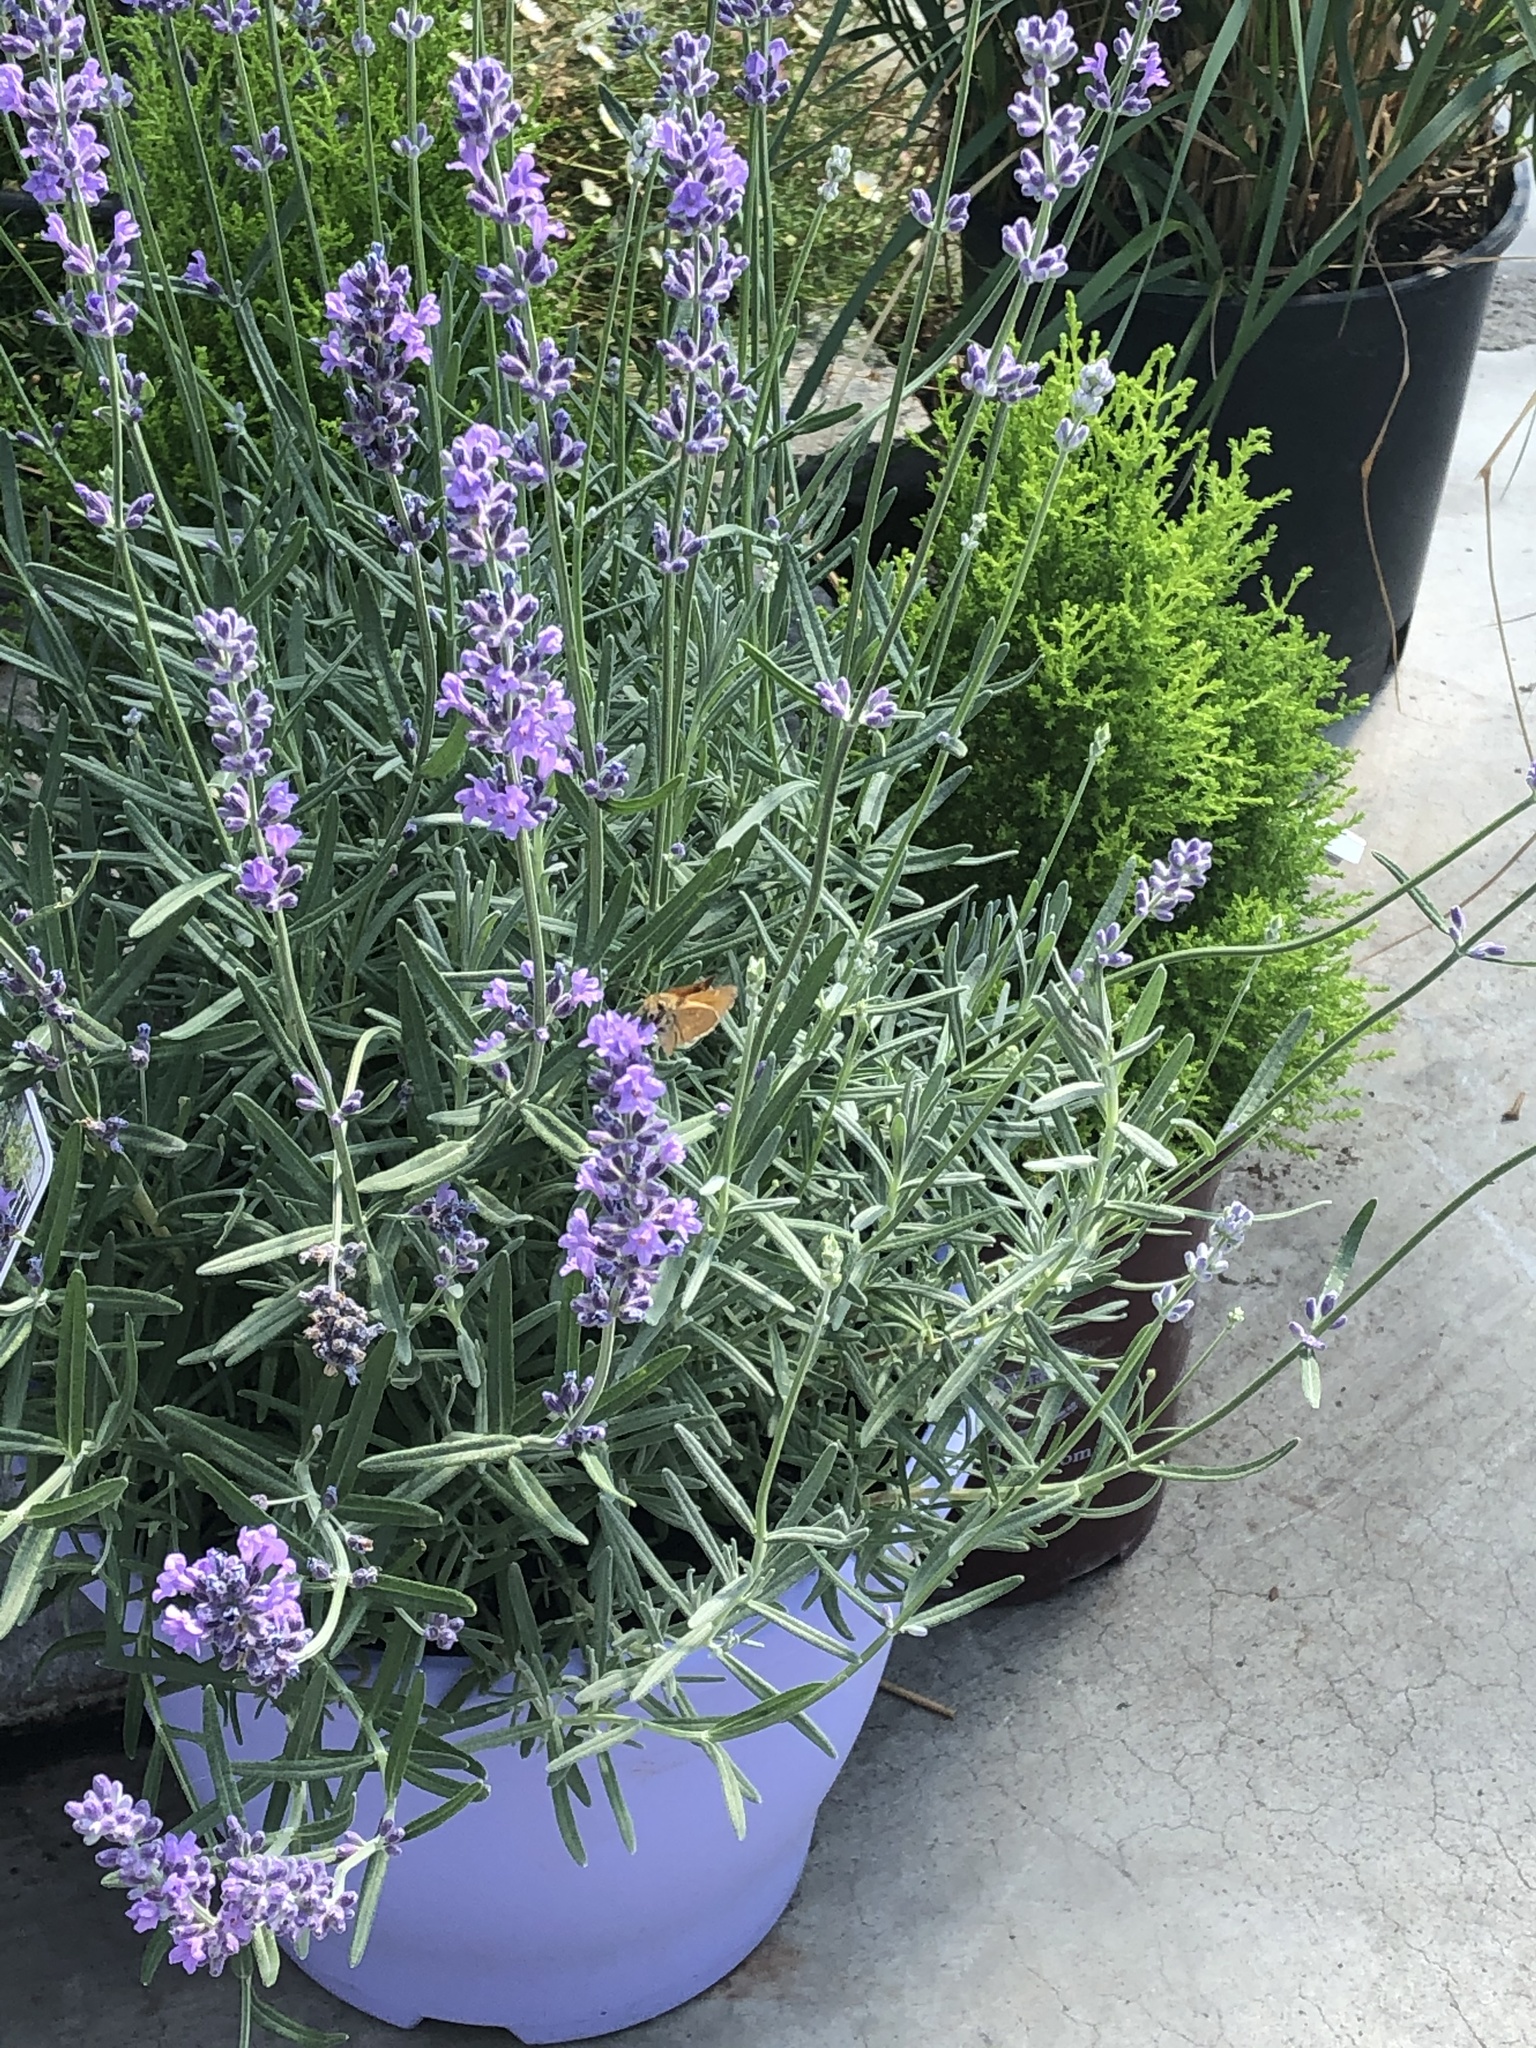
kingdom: Animalia
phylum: Arthropoda
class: Insecta
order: Lepidoptera
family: Hesperiidae
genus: Ochlodes
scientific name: Ochlodes sylvanoides
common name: Woodland skipper
